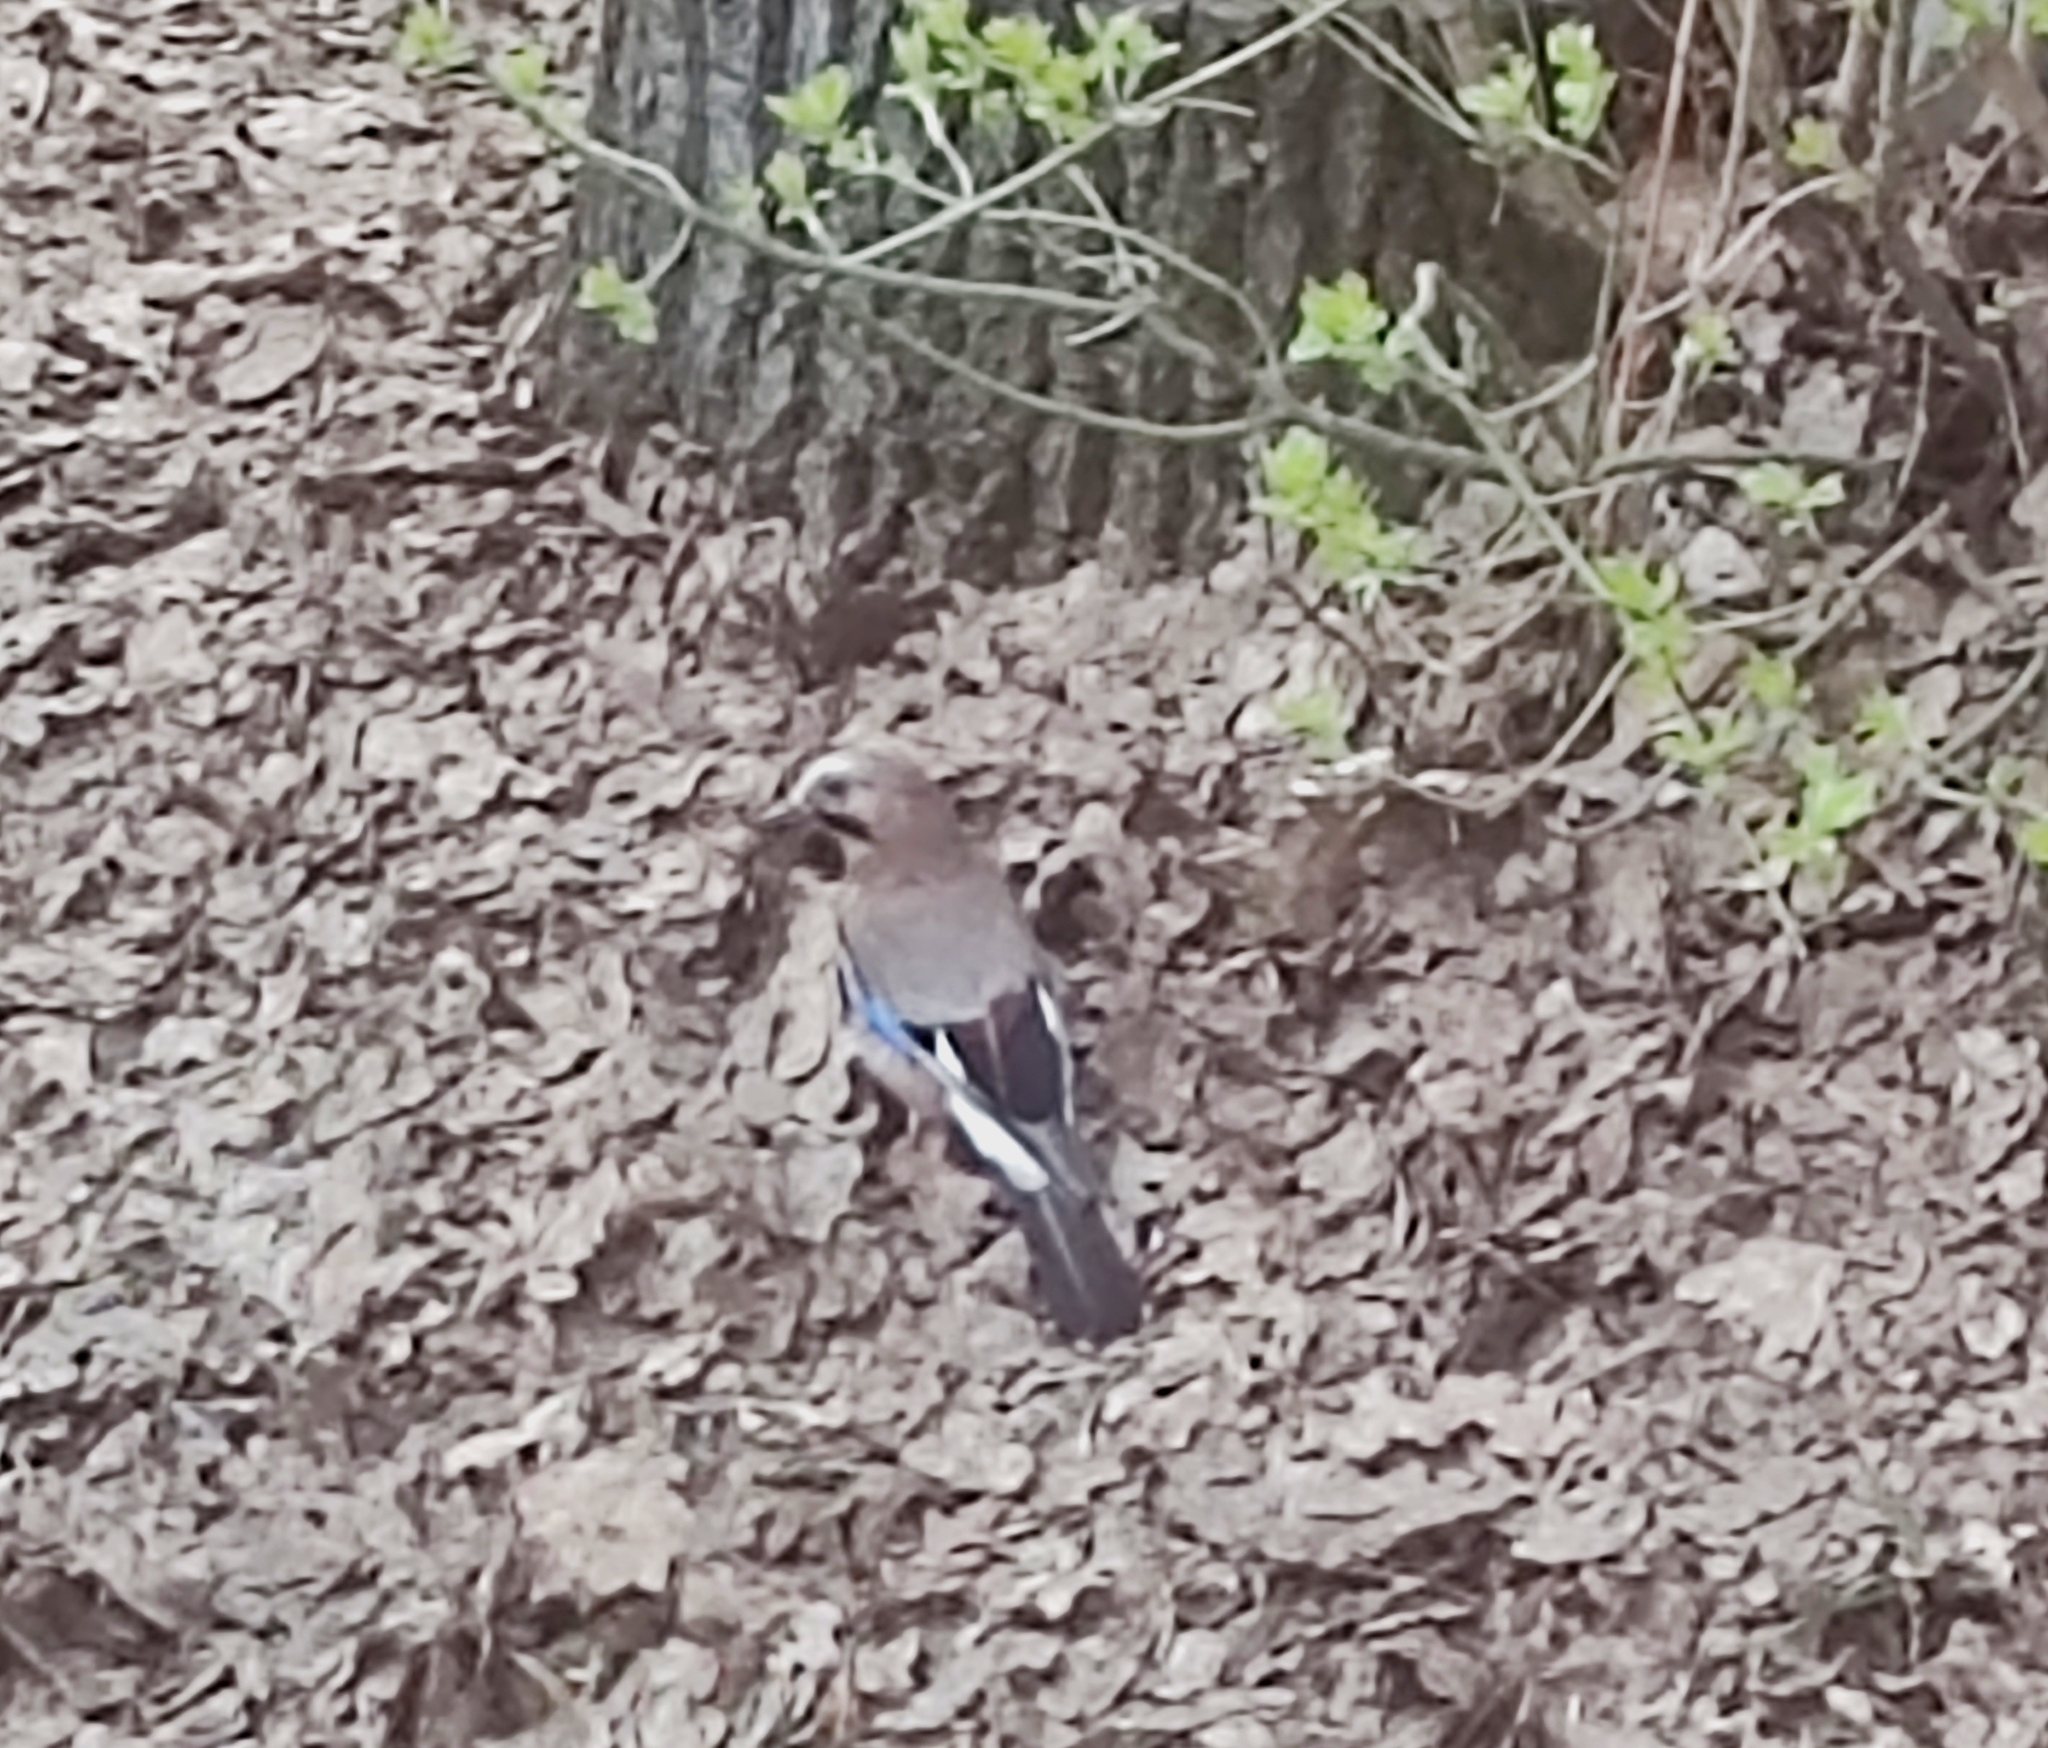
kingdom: Animalia
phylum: Chordata
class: Aves
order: Passeriformes
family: Corvidae
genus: Garrulus
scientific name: Garrulus glandarius
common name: Eurasian jay
